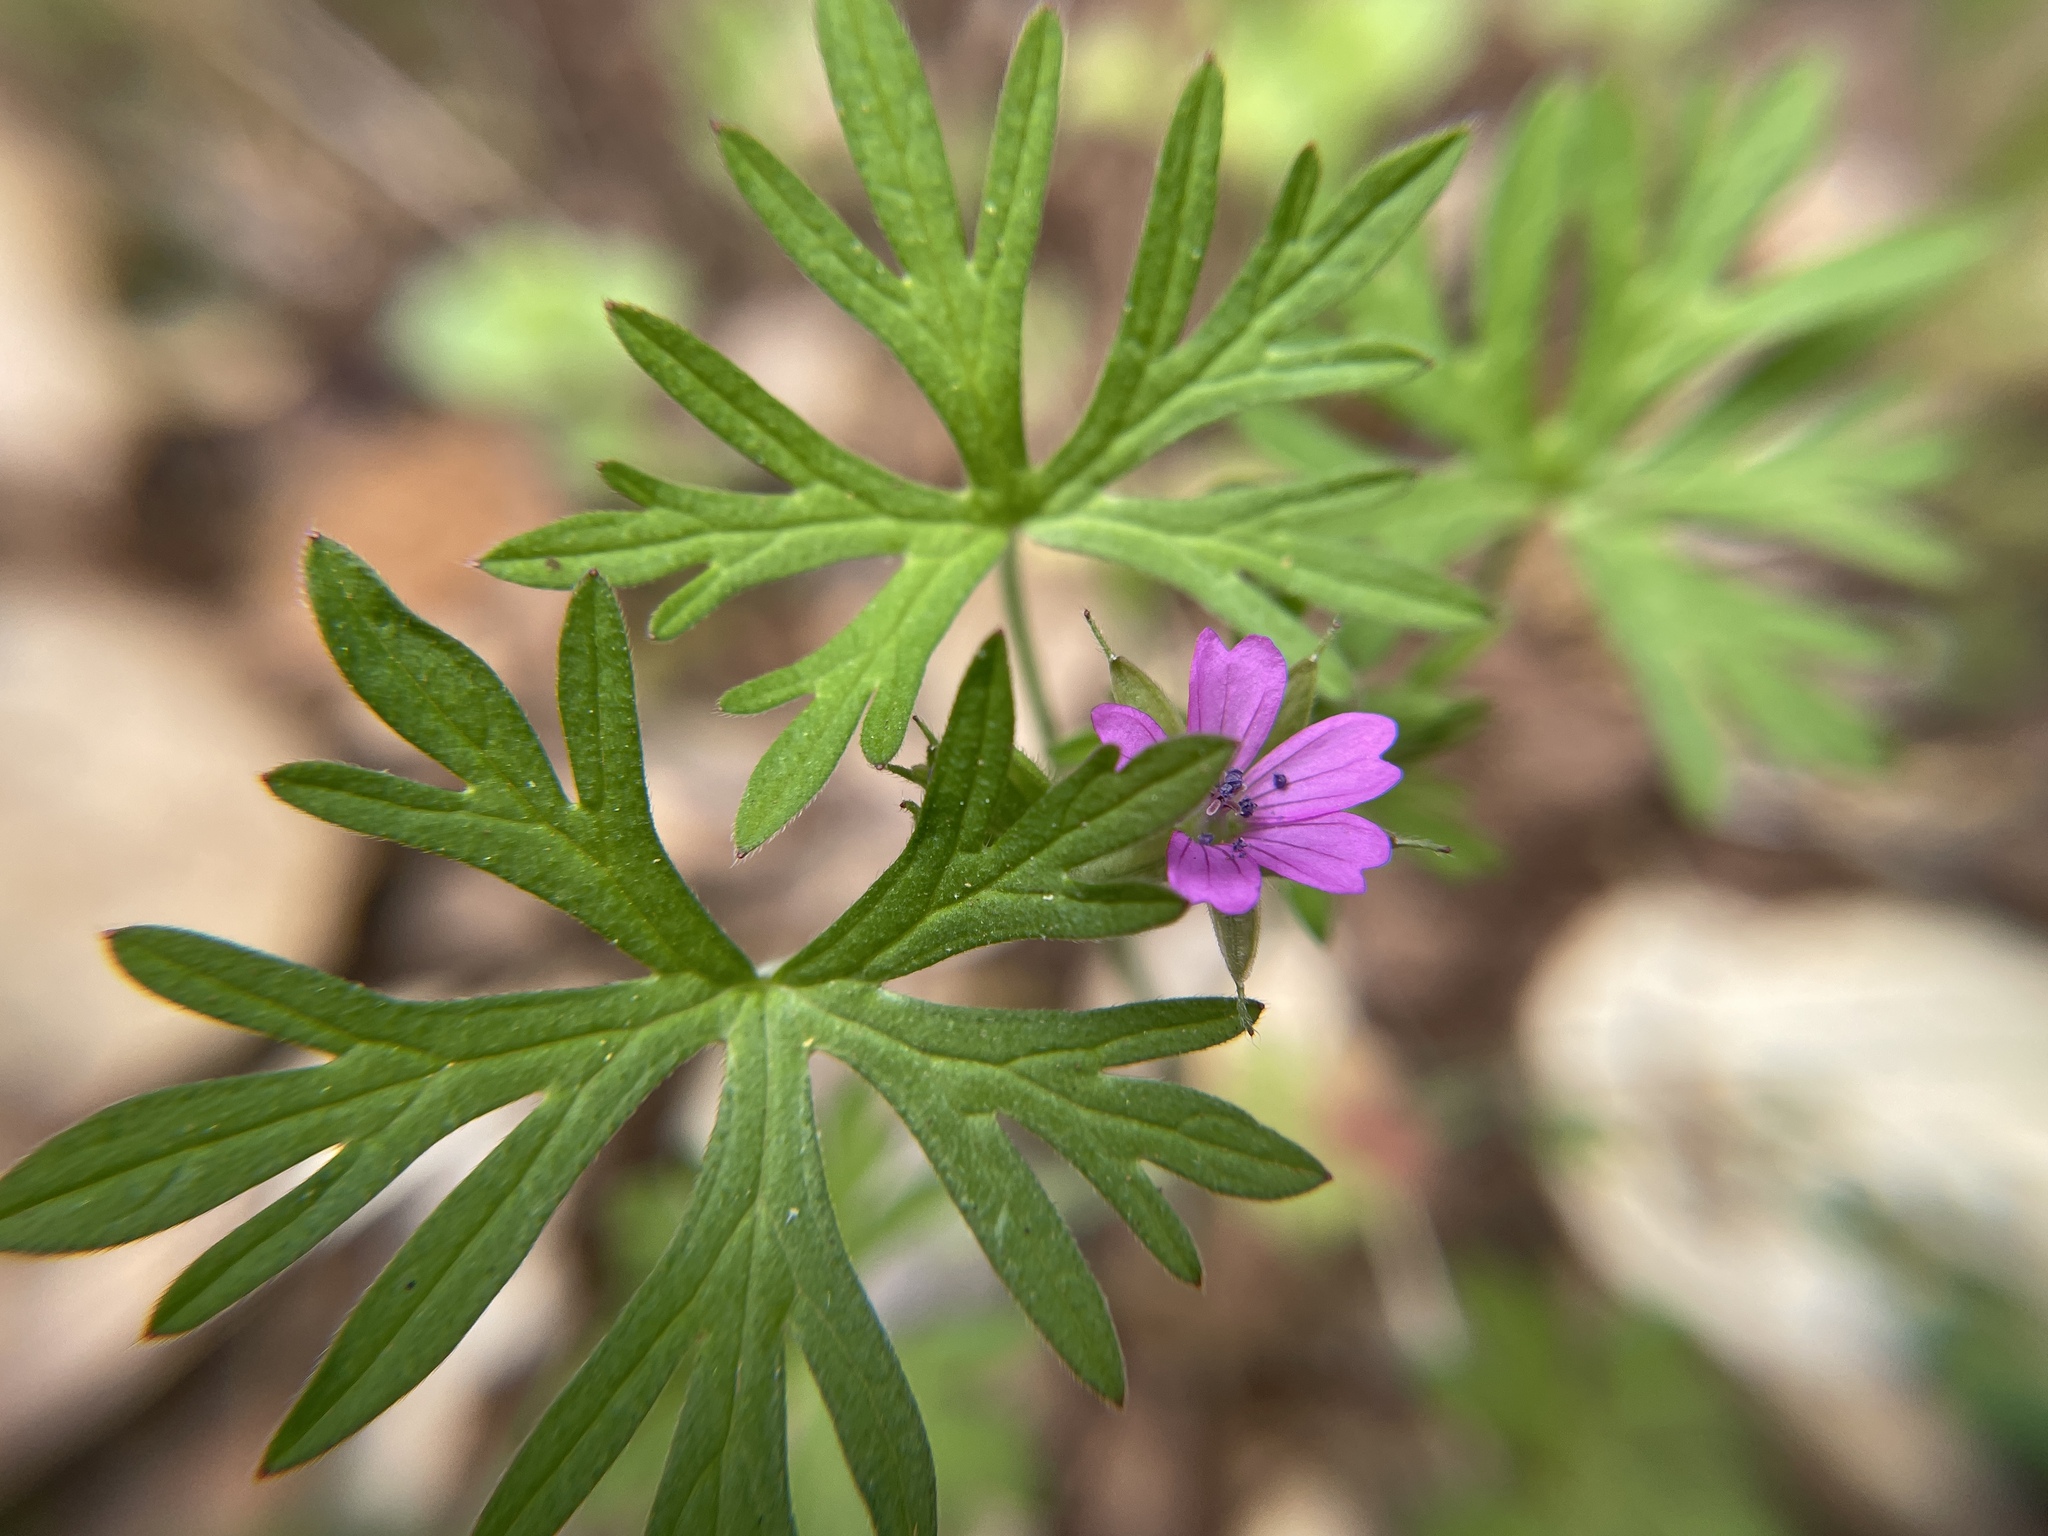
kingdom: Plantae
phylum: Tracheophyta
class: Magnoliopsida
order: Geraniales
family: Geraniaceae
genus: Geranium
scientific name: Geranium dissectum
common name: Cut-leaved crane's-bill
